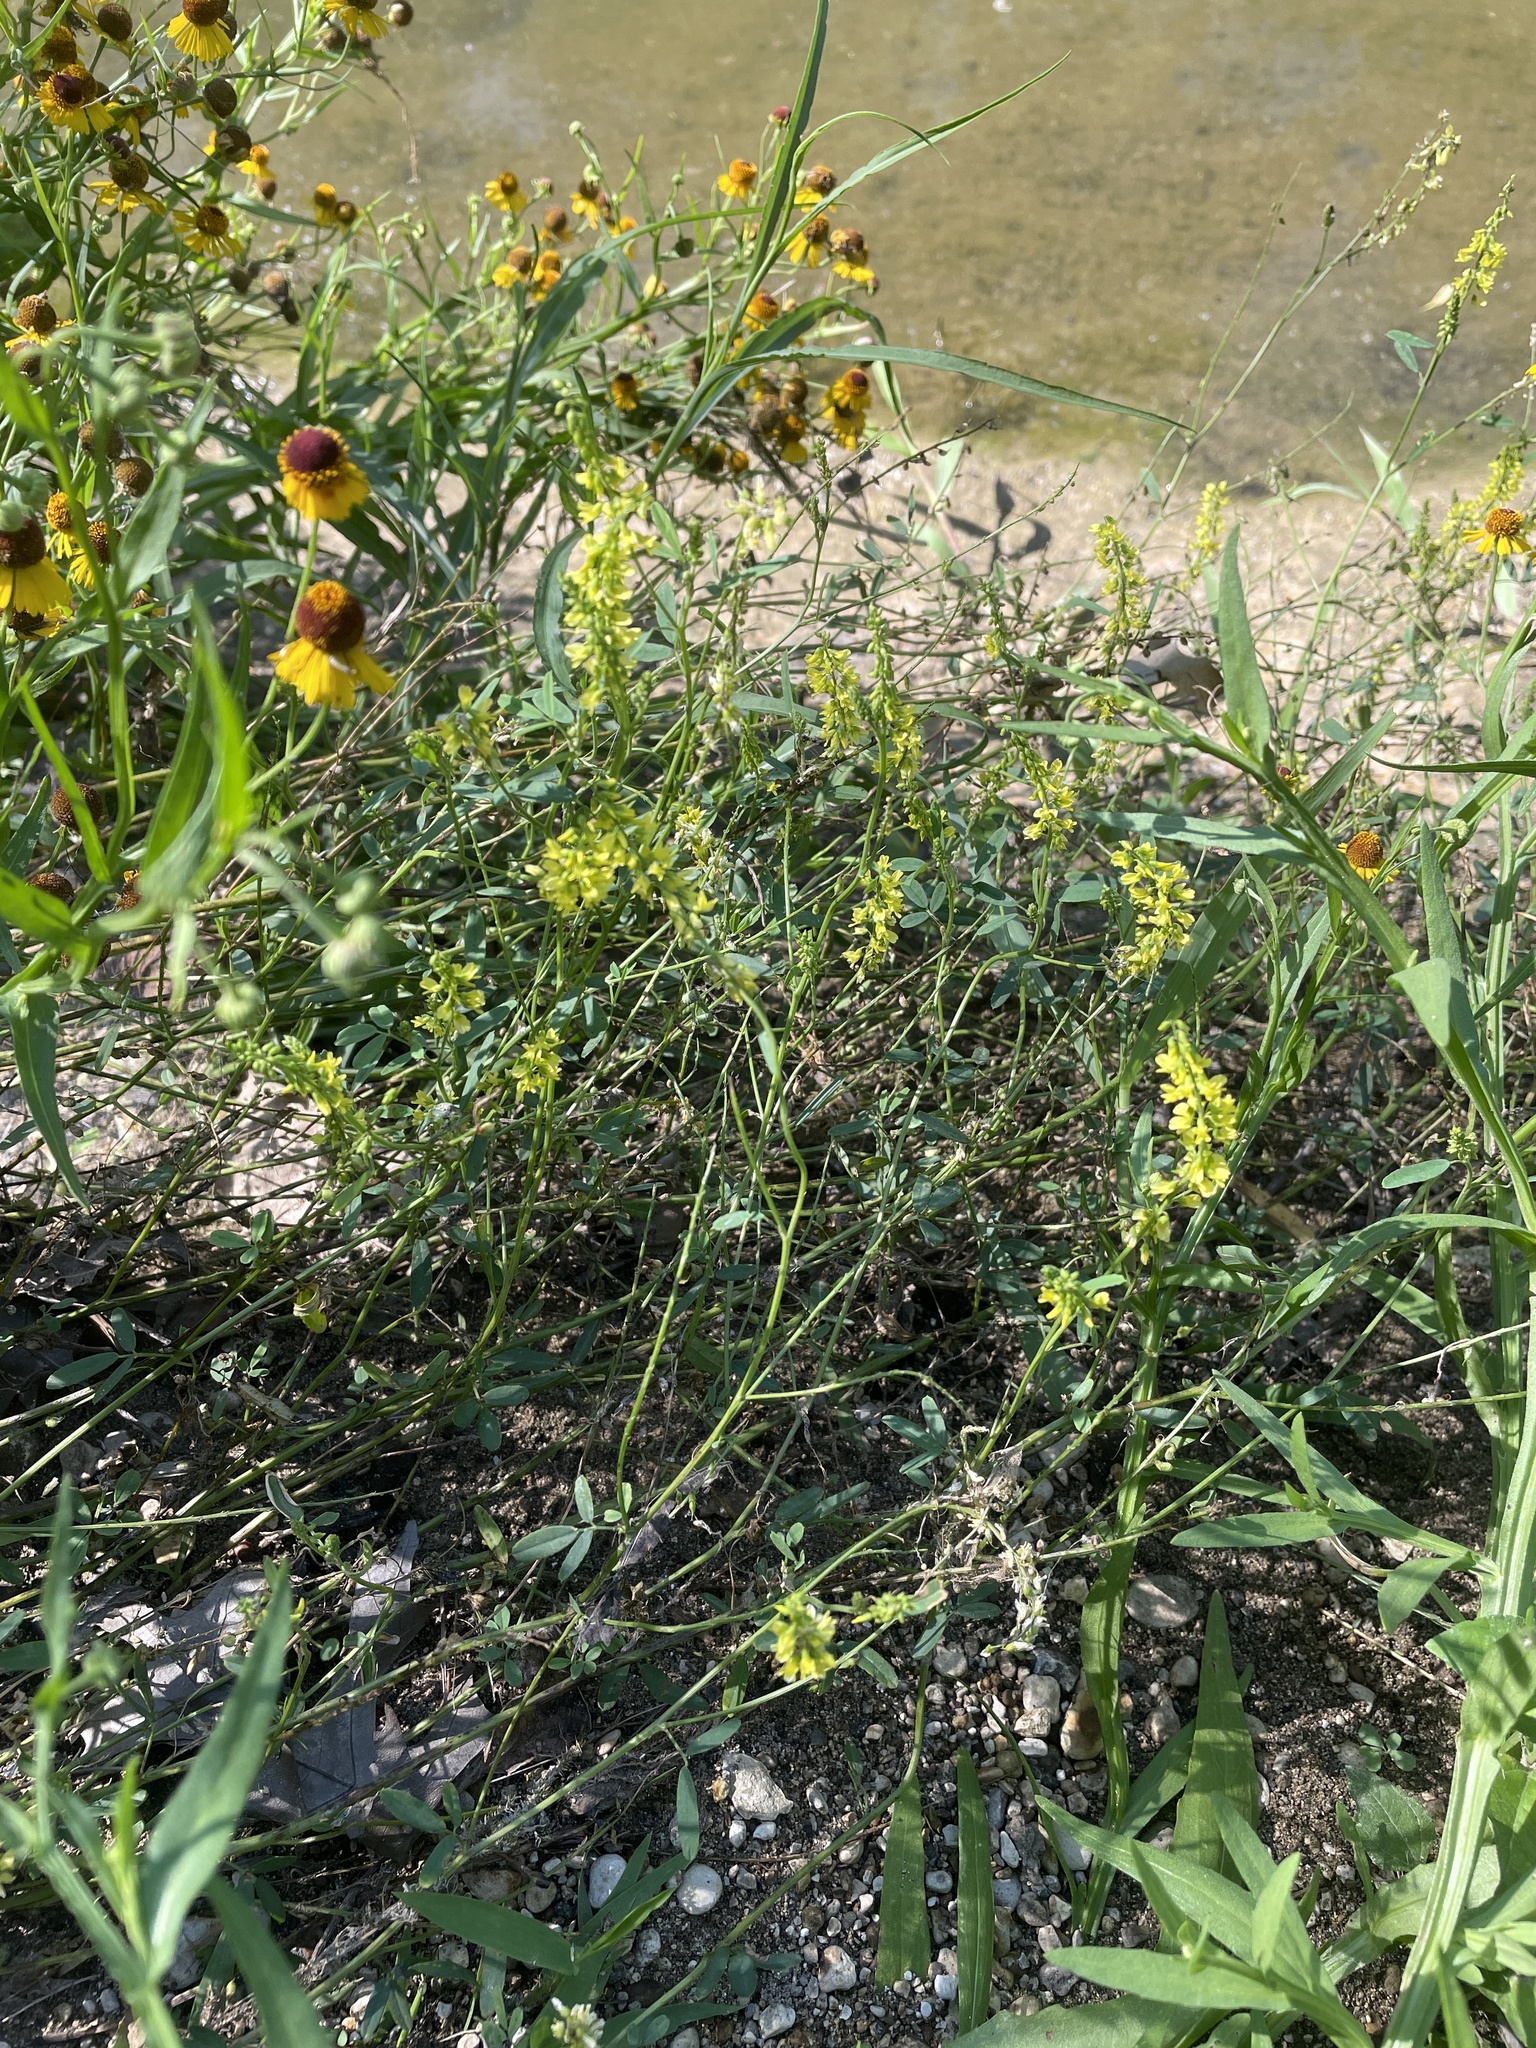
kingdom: Plantae
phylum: Tracheophyta
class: Magnoliopsida
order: Fabales
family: Fabaceae
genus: Melilotus
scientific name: Melilotus officinalis
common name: Sweetclover
